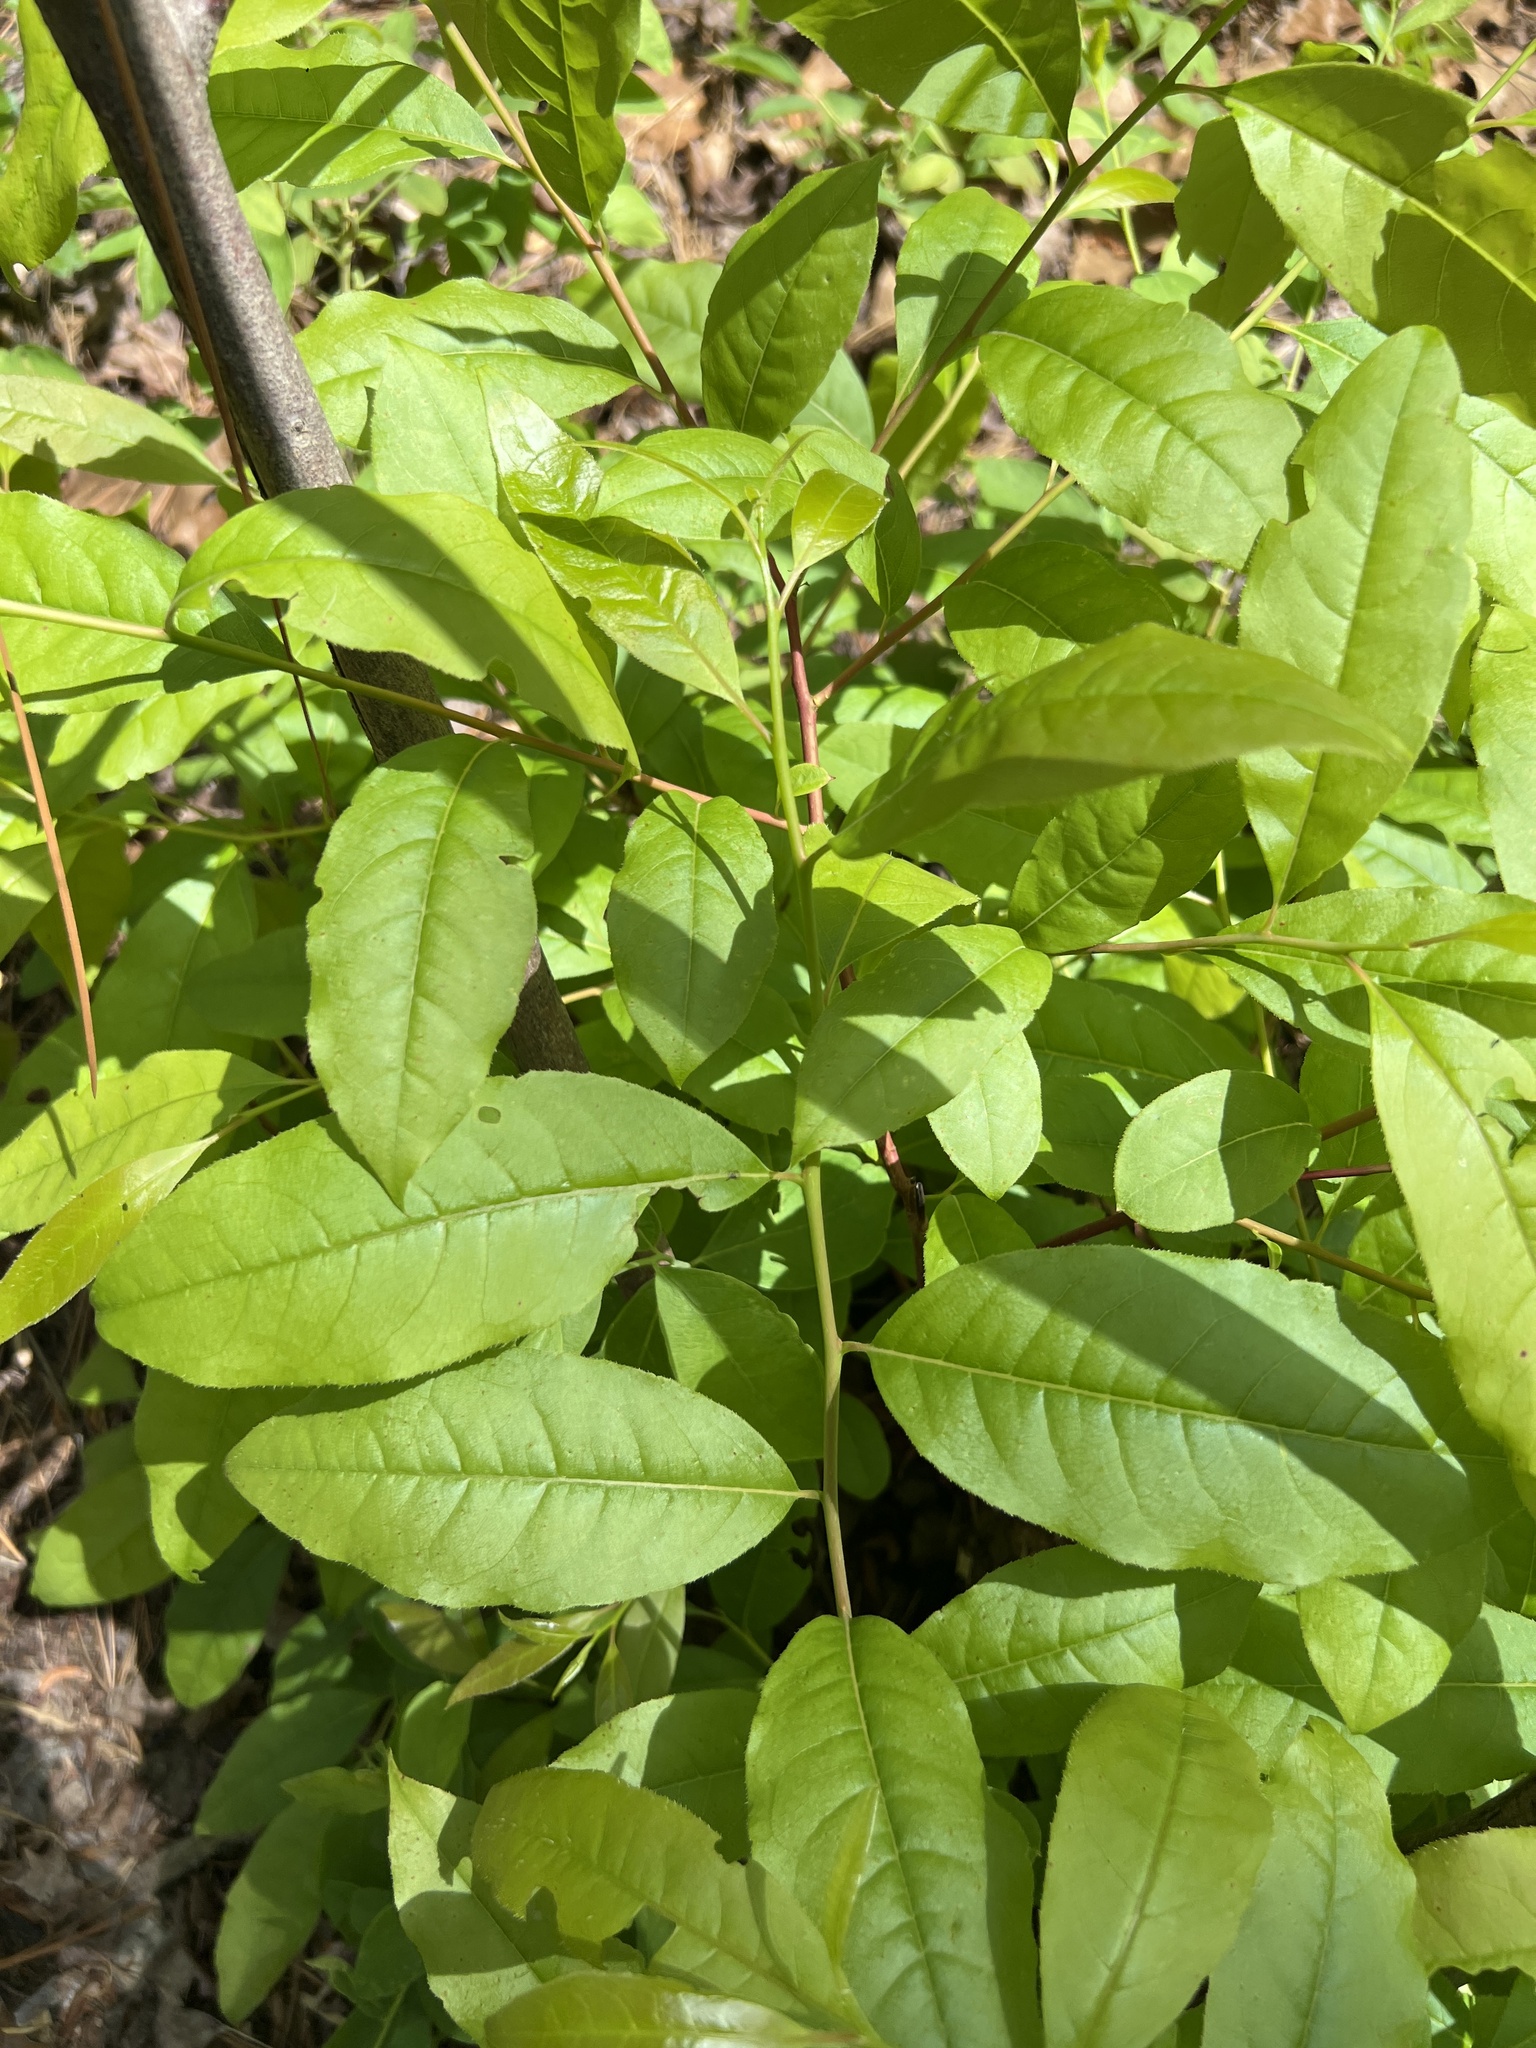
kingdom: Plantae
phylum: Tracheophyta
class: Magnoliopsida
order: Ericales
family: Ericaceae
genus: Oxydendrum
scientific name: Oxydendrum arboreum
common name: Sourwood
